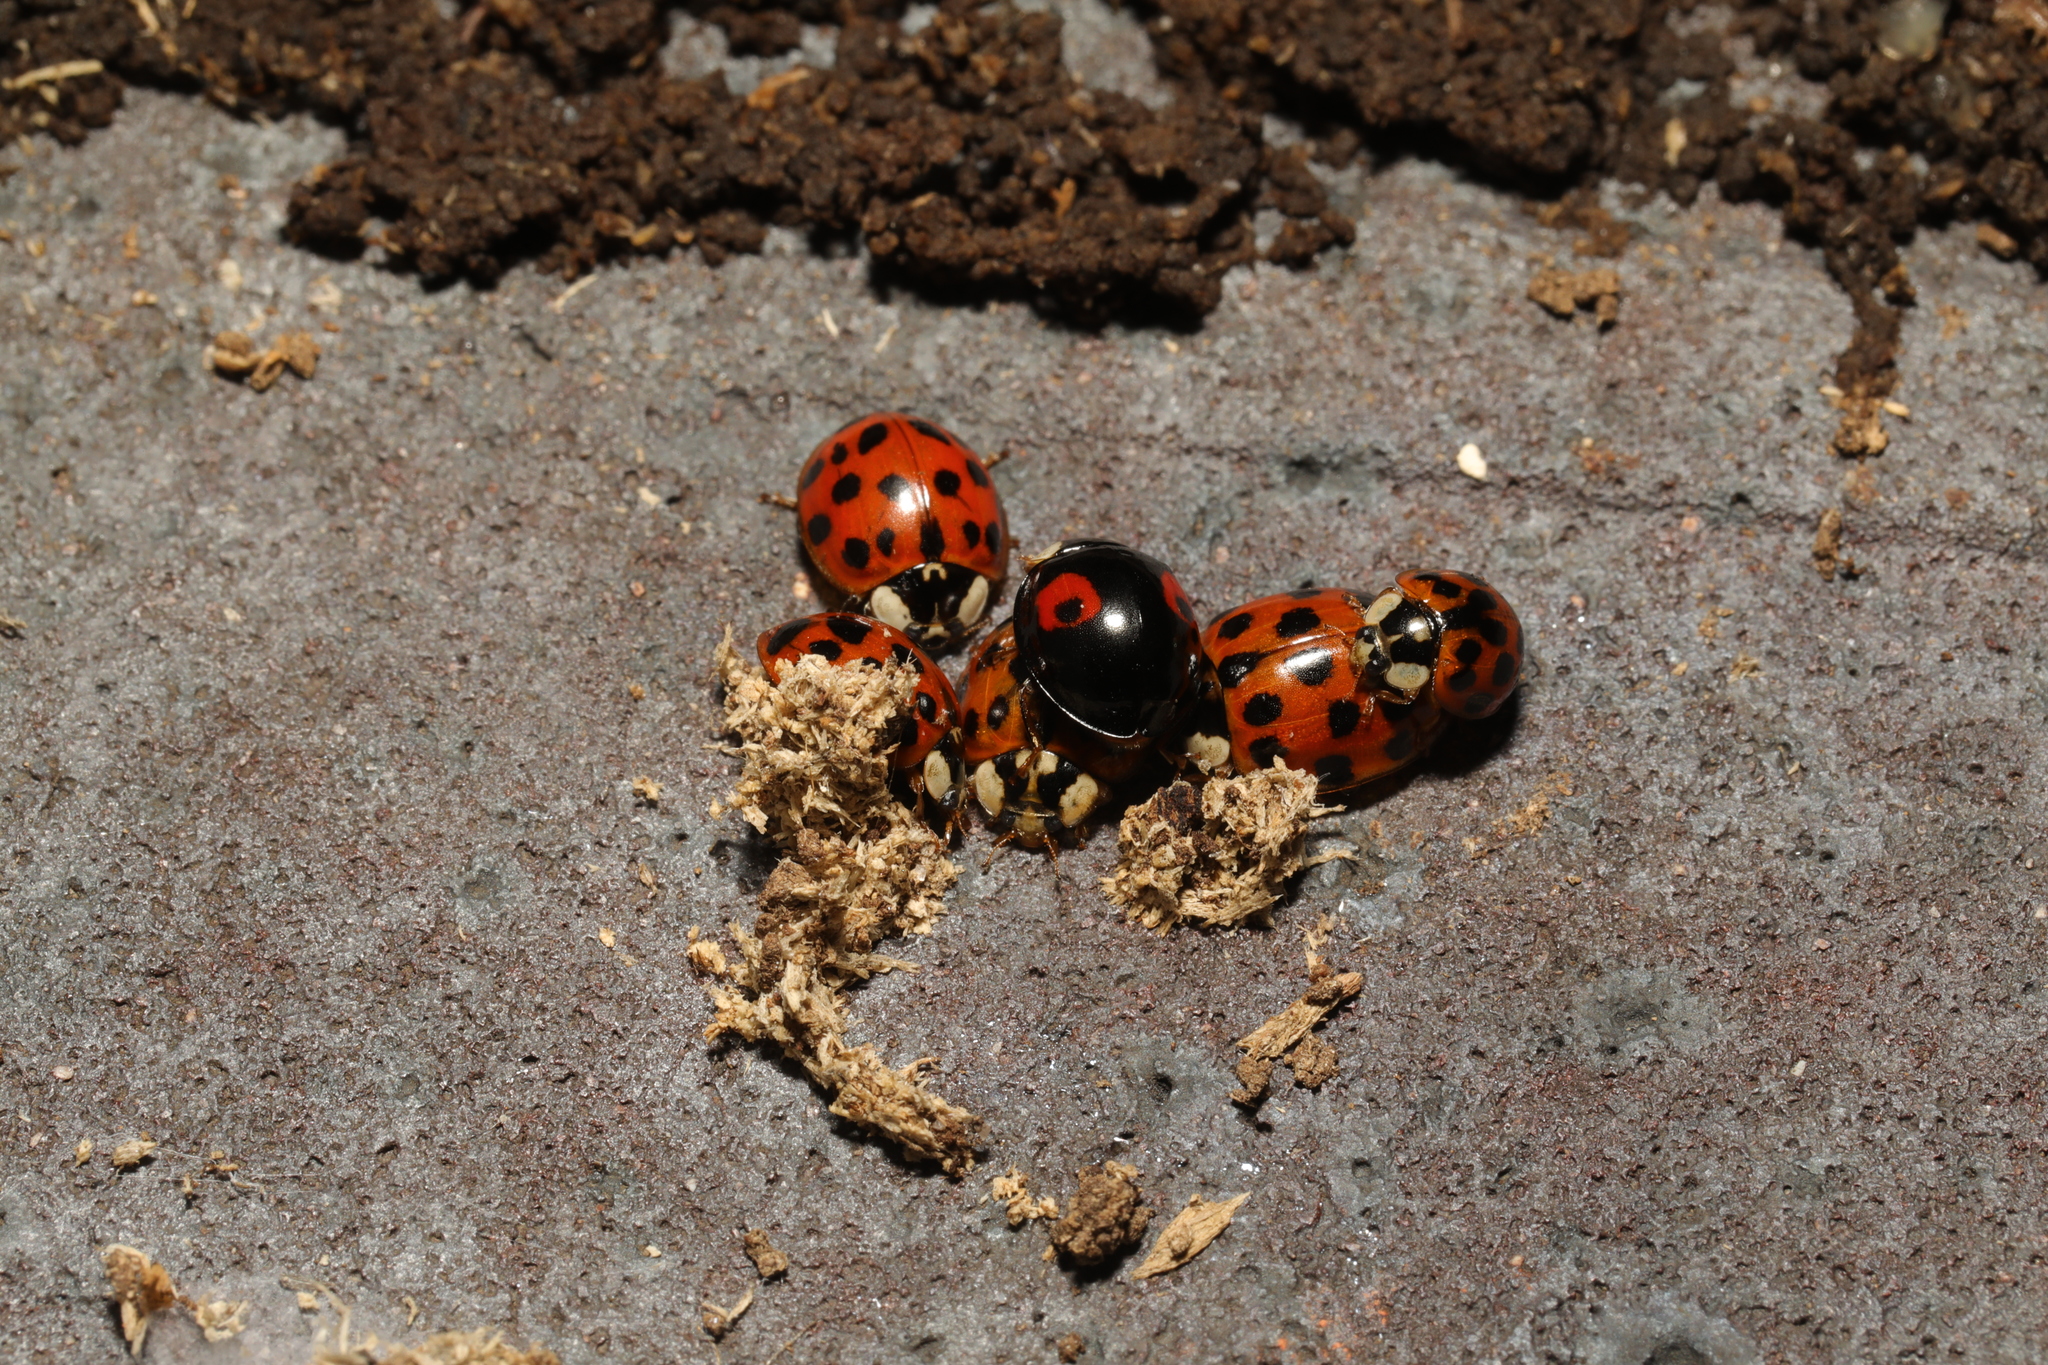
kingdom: Animalia
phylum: Arthropoda
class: Insecta
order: Coleoptera
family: Coccinellidae
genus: Harmonia
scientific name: Harmonia axyridis
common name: Harlequin ladybird
